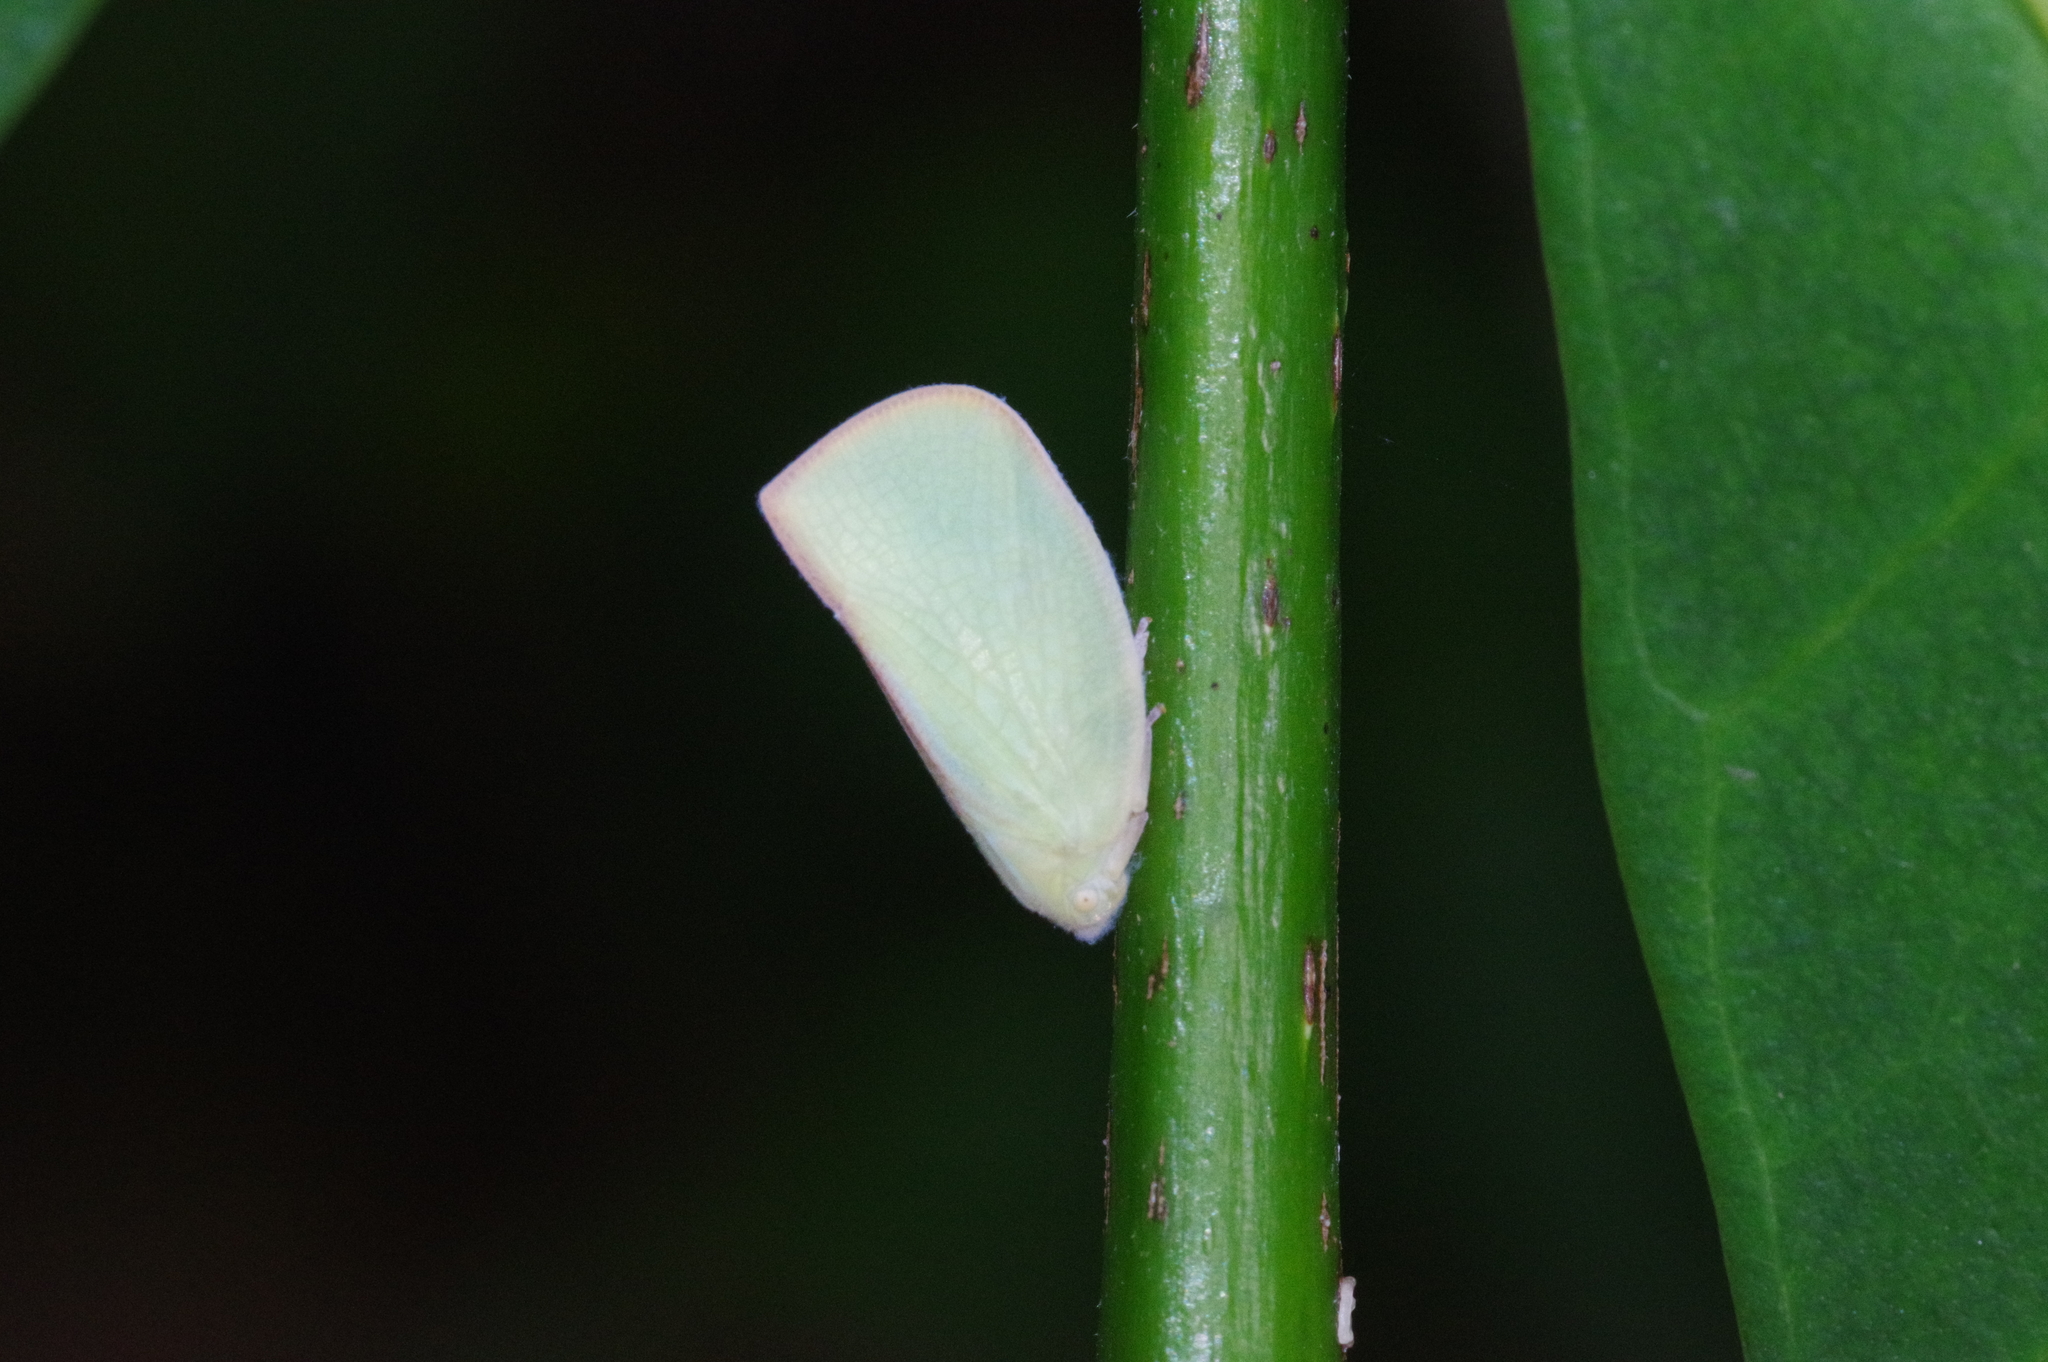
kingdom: Animalia
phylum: Arthropoda
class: Insecta
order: Hemiptera
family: Flatidae
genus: Geisha
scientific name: Geisha distinctissima
